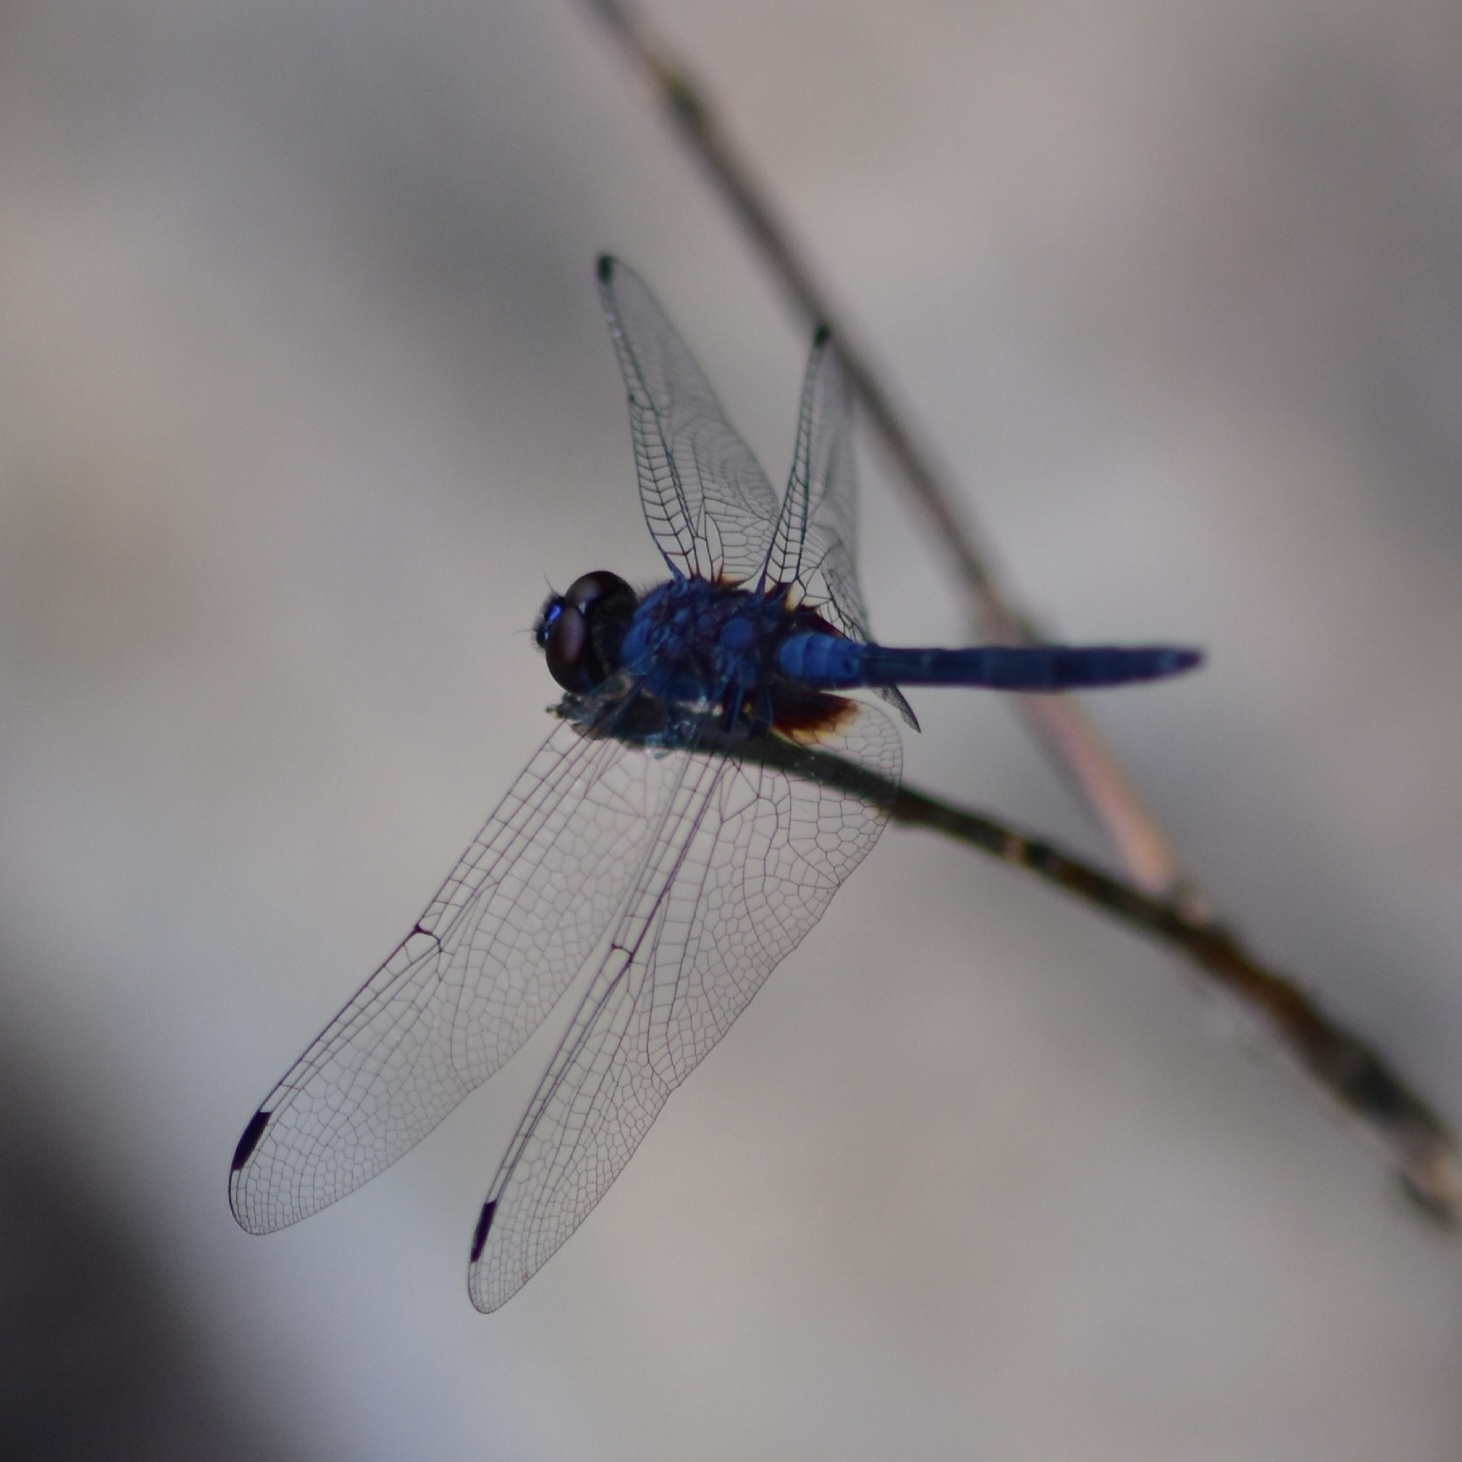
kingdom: Animalia
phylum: Arthropoda
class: Insecta
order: Odonata
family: Libellulidae
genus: Trithemis
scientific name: Trithemis festiva
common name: Indigo dropwing
